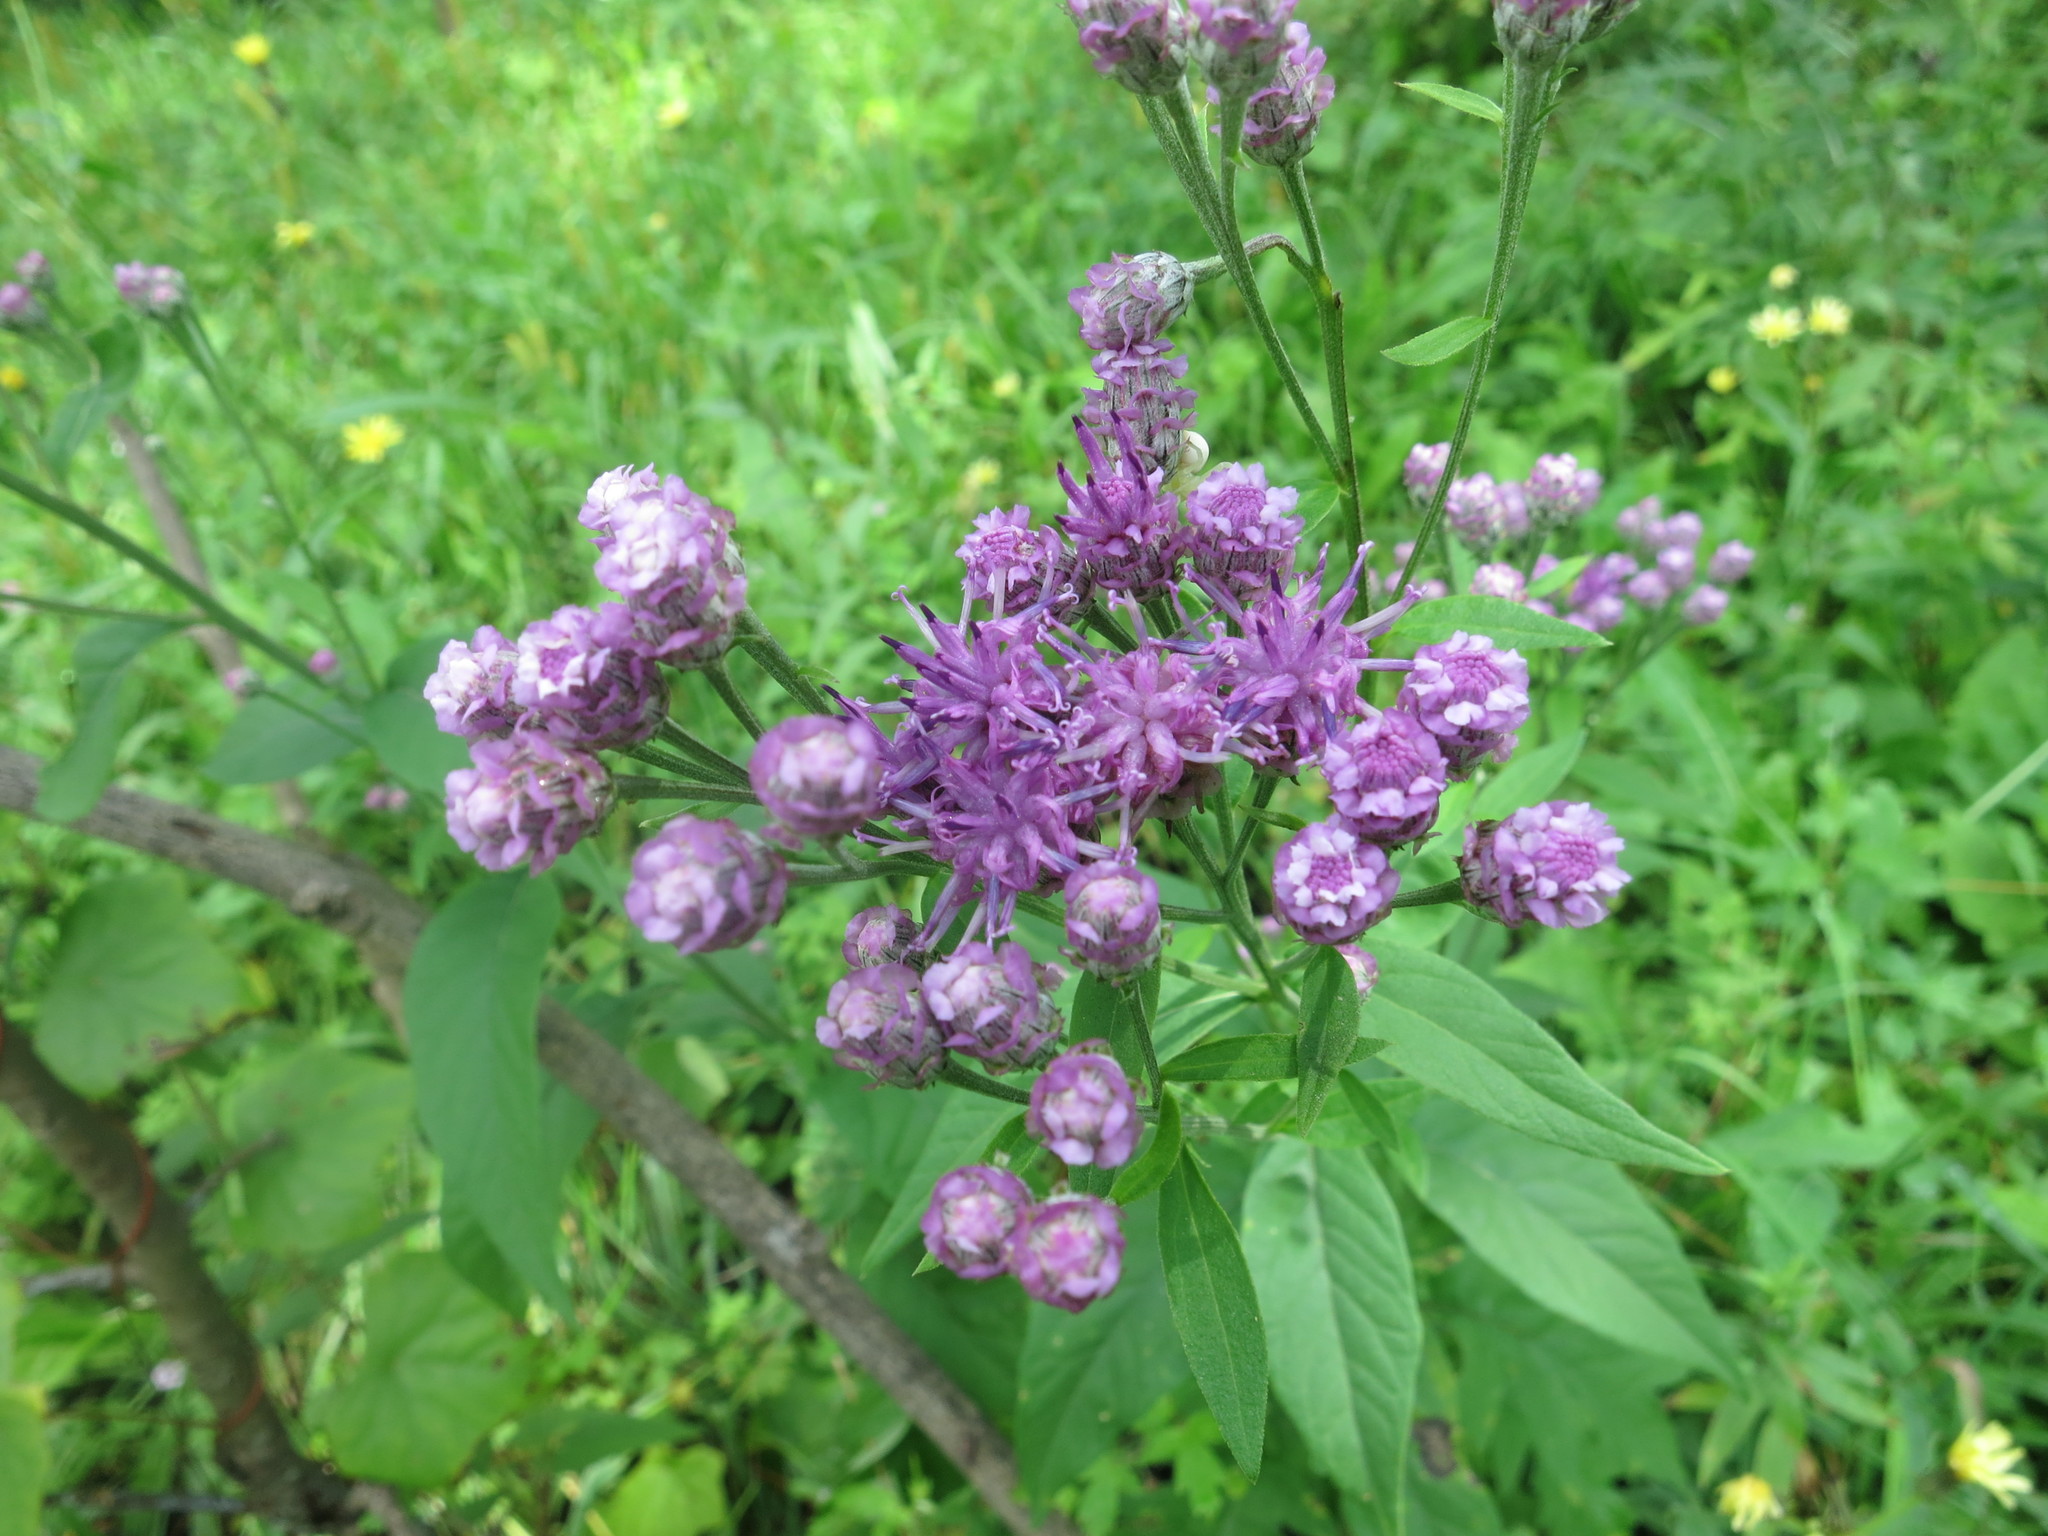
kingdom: Plantae
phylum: Tracheophyta
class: Magnoliopsida
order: Asterales
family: Asteraceae
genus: Saussurea
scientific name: Saussurea pulchella
